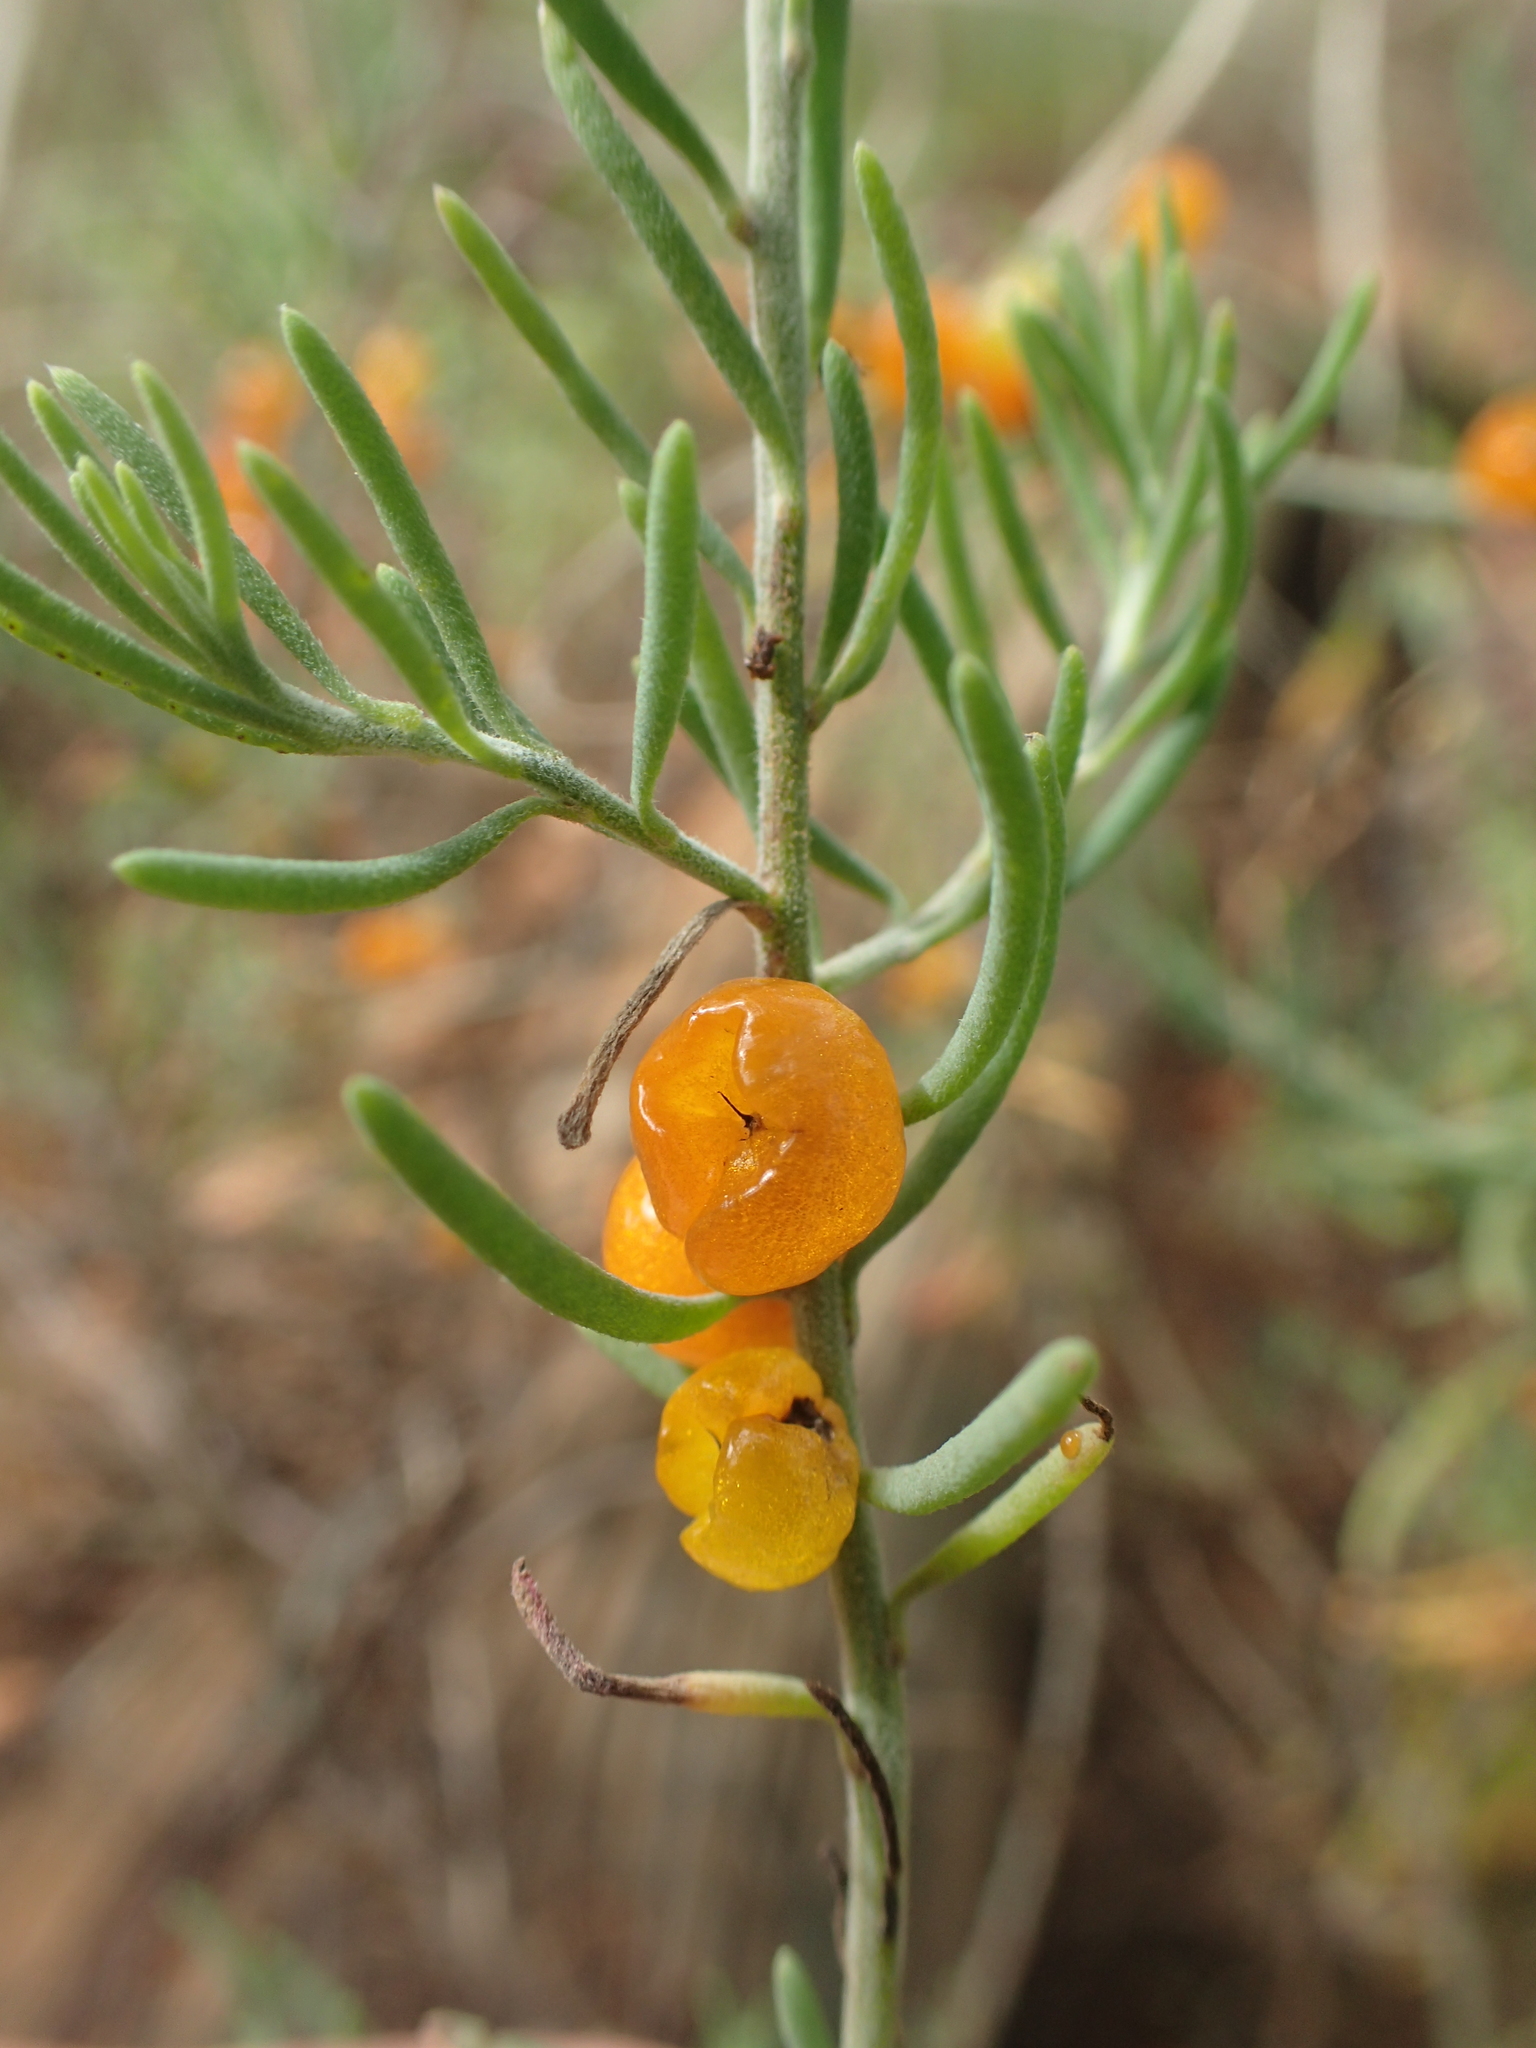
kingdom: Plantae
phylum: Tracheophyta
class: Magnoliopsida
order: Caryophyllales
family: Amaranthaceae
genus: Enchylaena
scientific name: Enchylaena tomentosa
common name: Ruby saltbush
